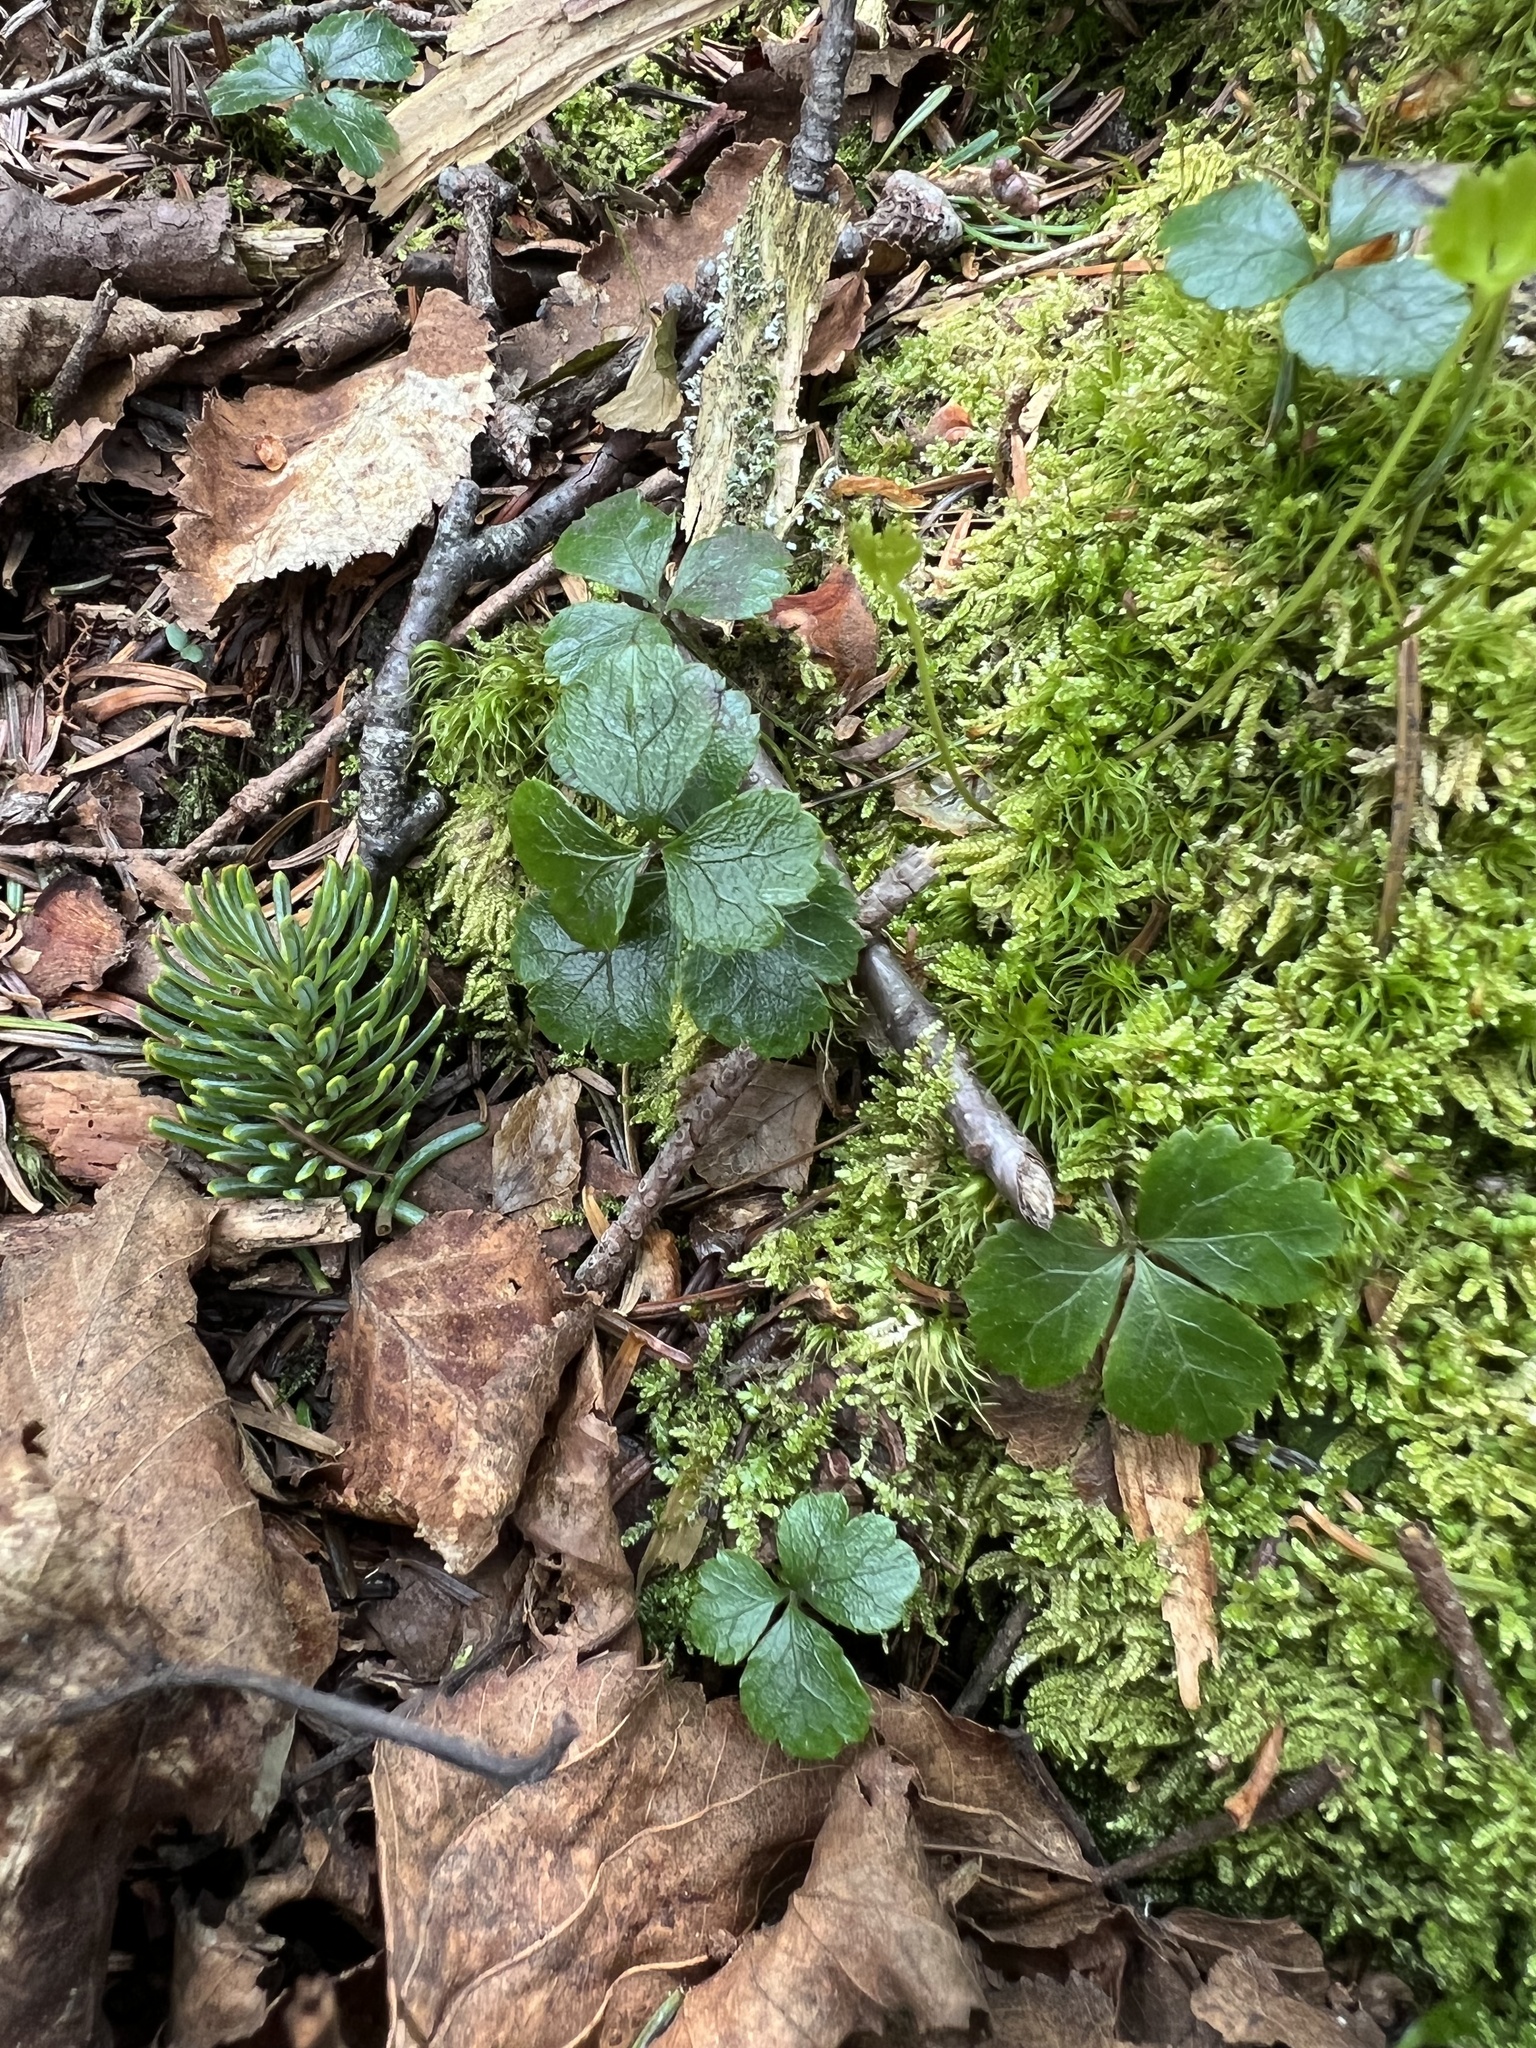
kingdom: Plantae
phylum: Tracheophyta
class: Magnoliopsida
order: Ranunculales
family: Ranunculaceae
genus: Coptis
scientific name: Coptis trifolia
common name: Canker-root
